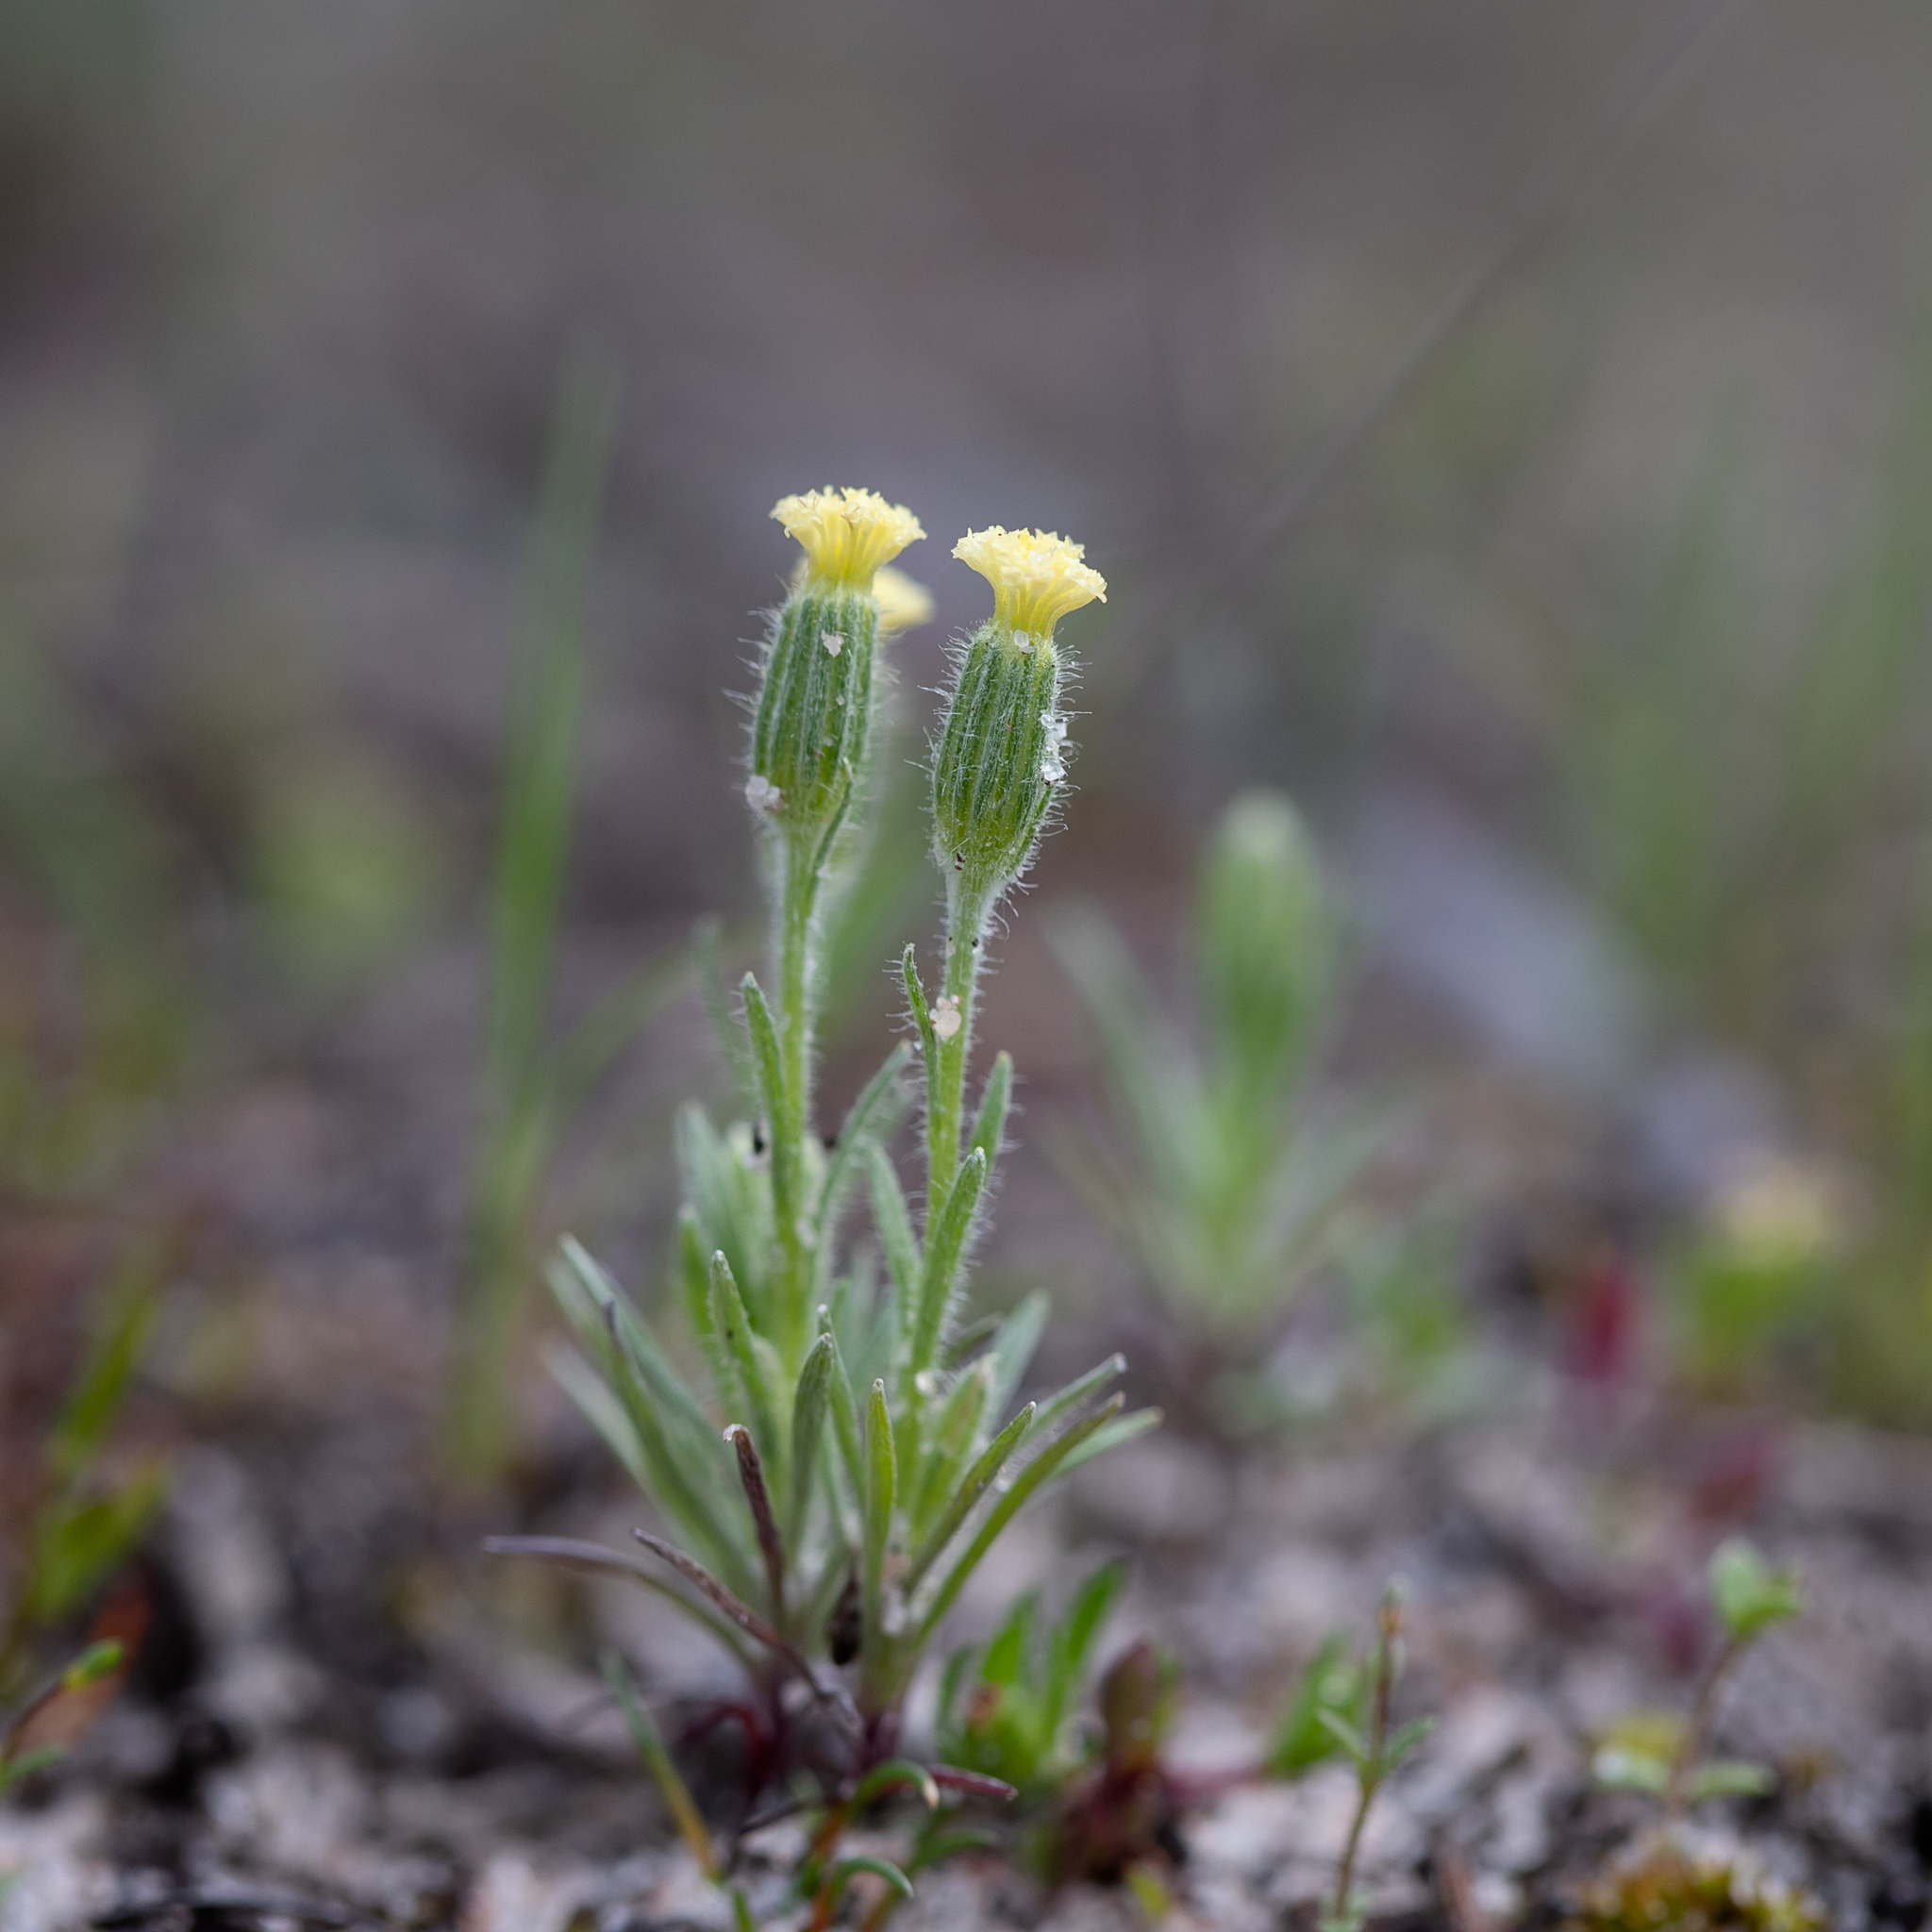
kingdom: Plantae
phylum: Tracheophyta
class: Magnoliopsida
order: Asterales
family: Asteraceae
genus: Millotia
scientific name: Millotia tenuifolia
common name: Soft millotia
